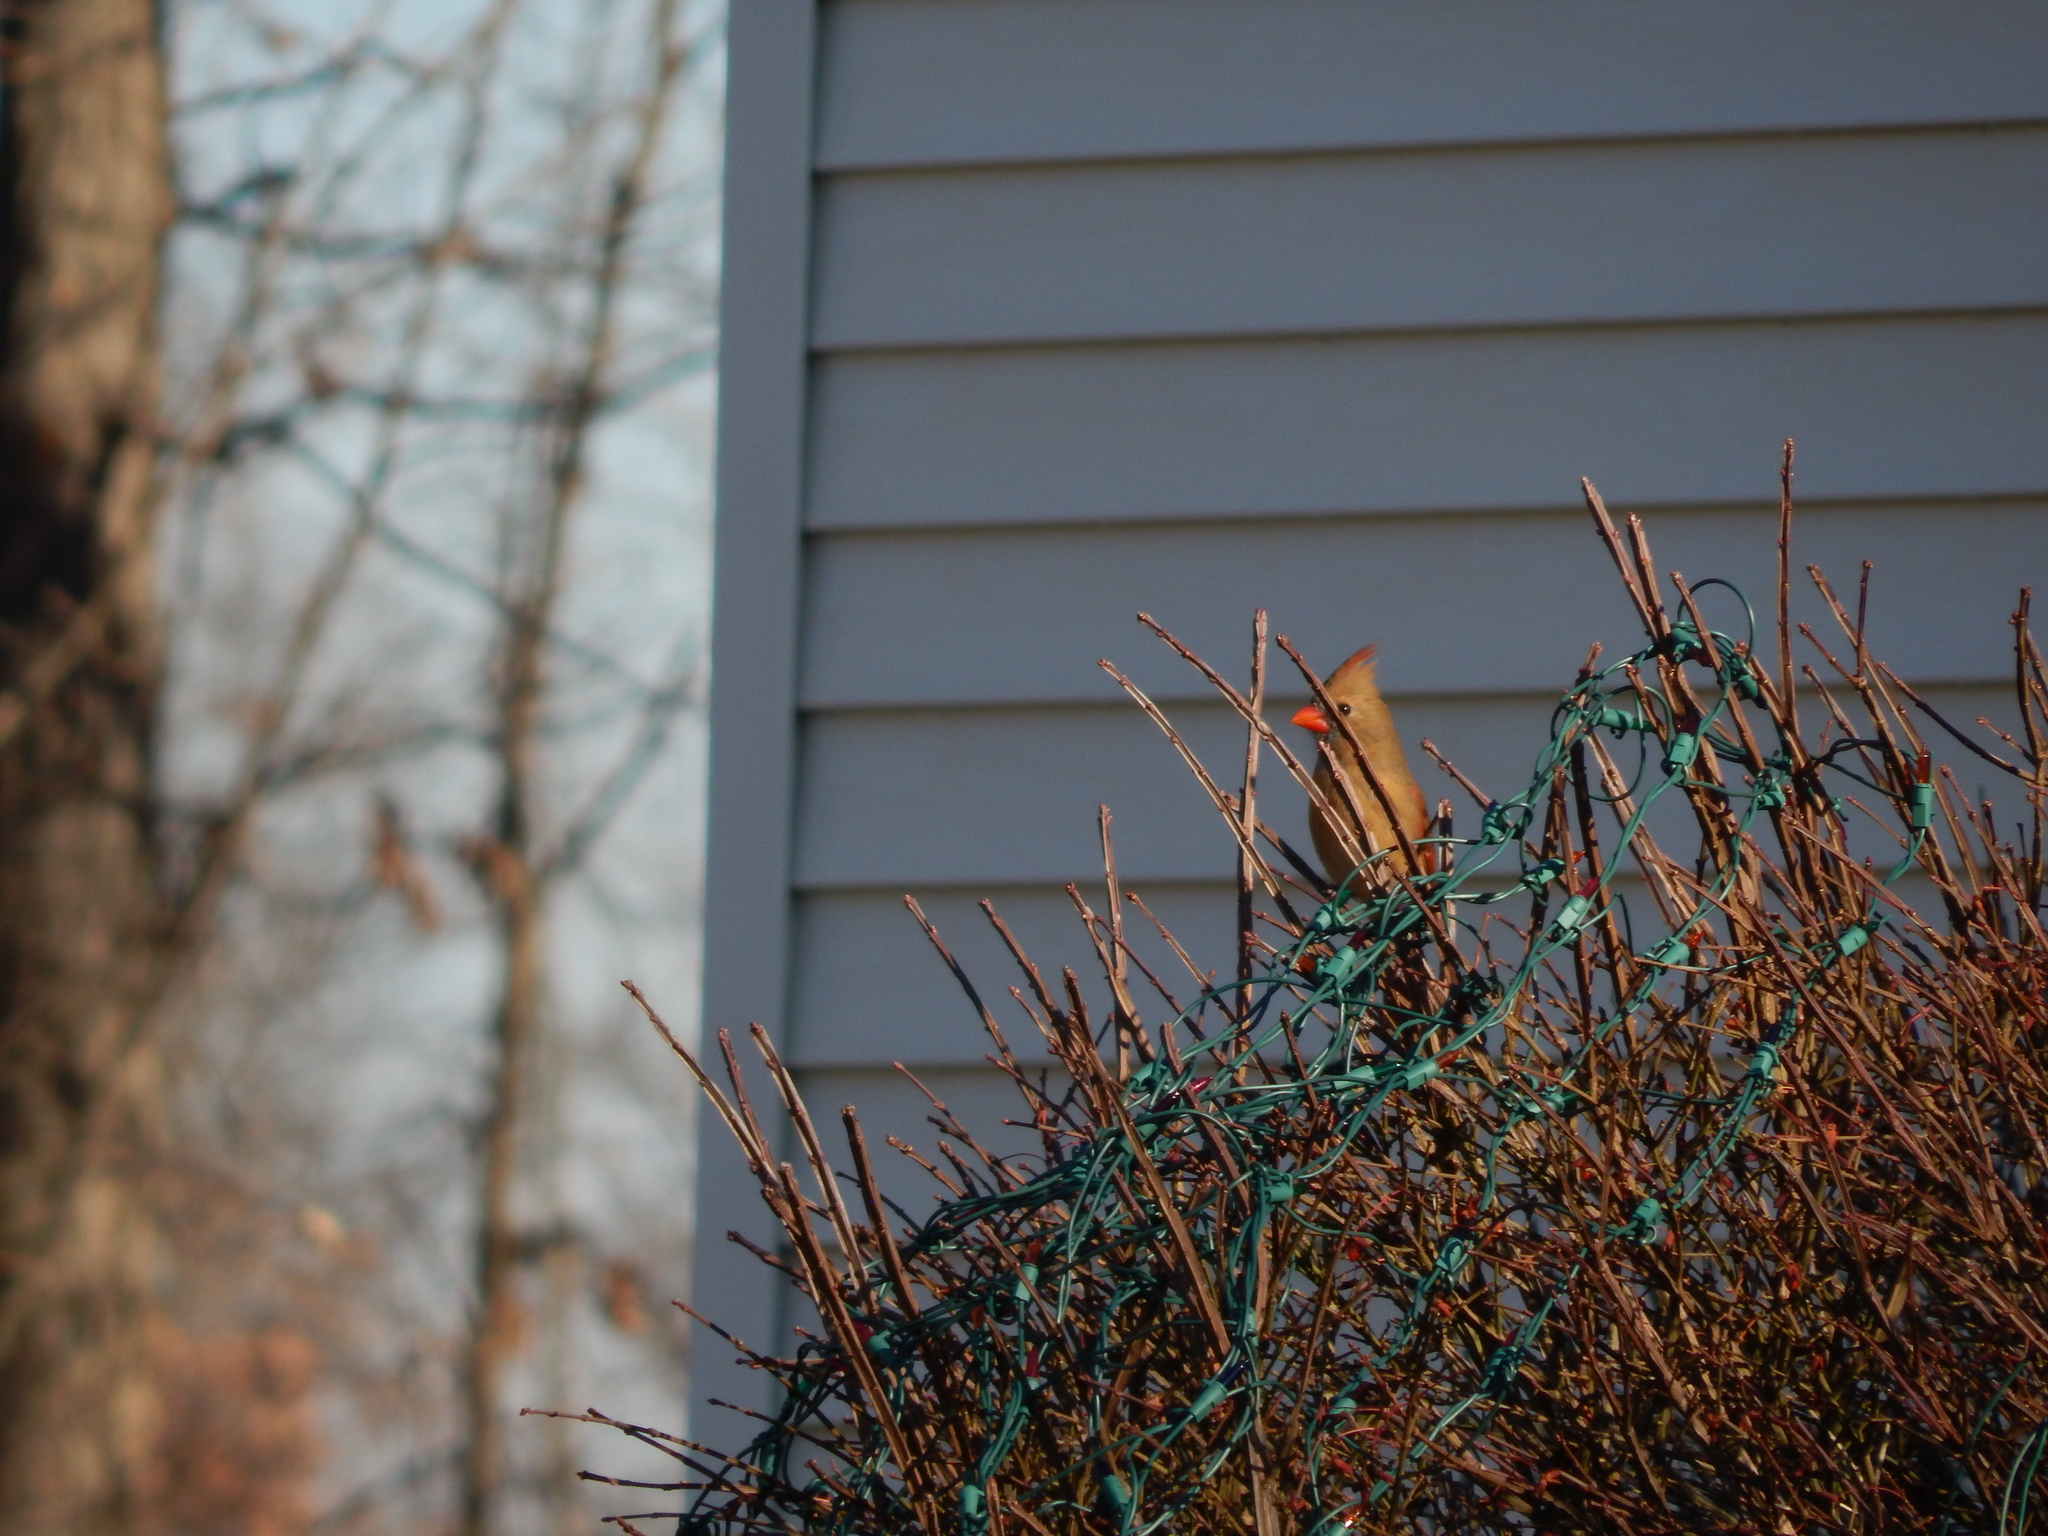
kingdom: Animalia
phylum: Chordata
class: Aves
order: Passeriformes
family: Cardinalidae
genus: Cardinalis
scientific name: Cardinalis cardinalis
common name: Northern cardinal
